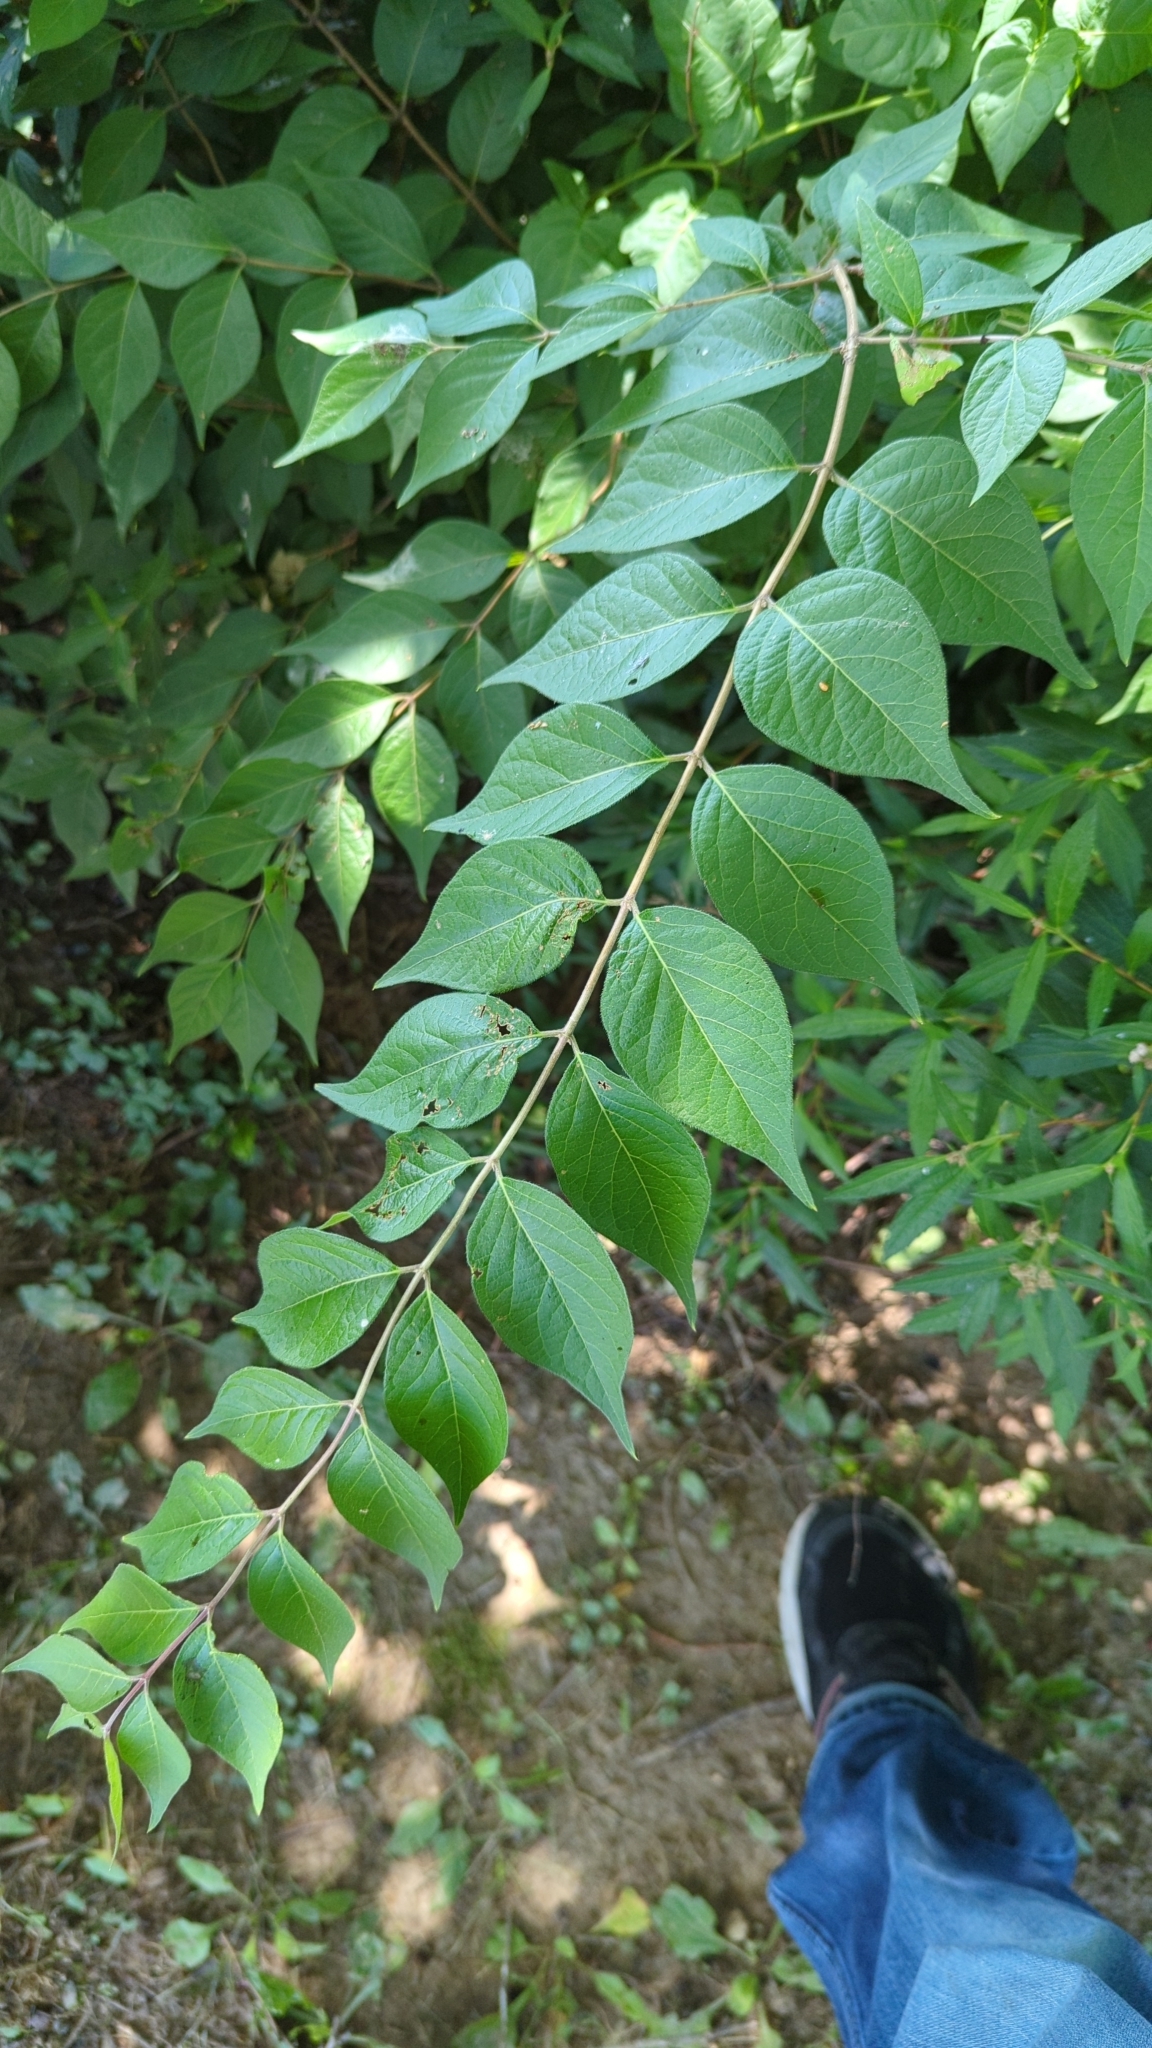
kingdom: Plantae
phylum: Tracheophyta
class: Magnoliopsida
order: Dipsacales
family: Caprifoliaceae
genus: Lonicera
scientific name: Lonicera maackii
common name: Amur honeysuckle
